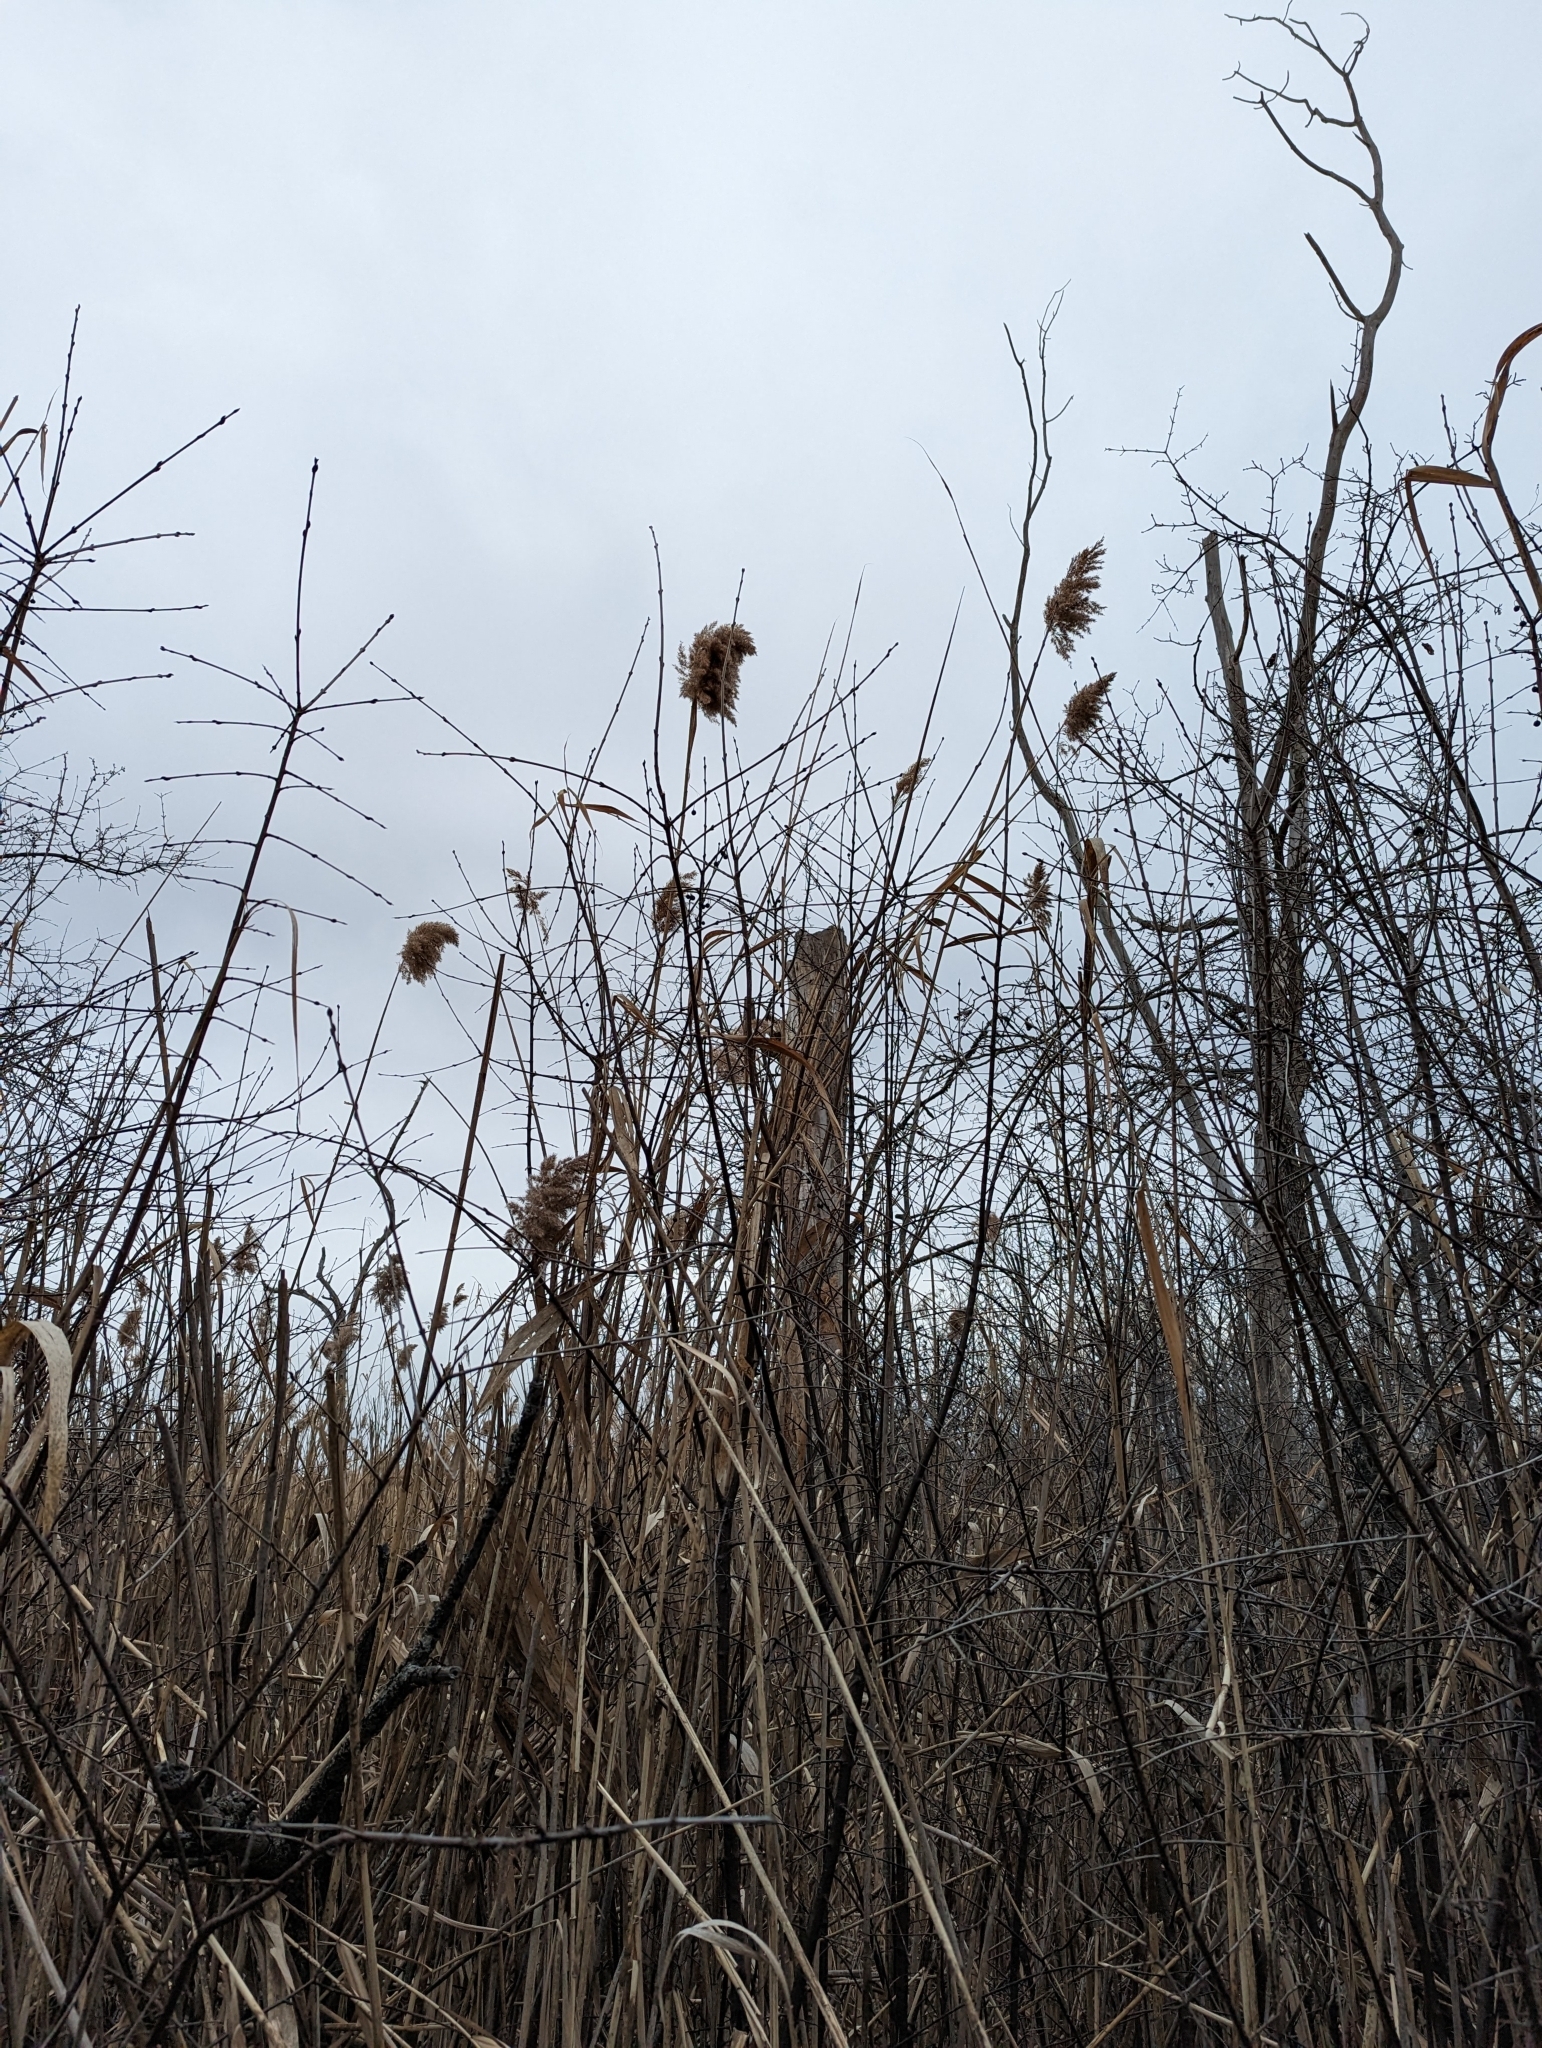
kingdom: Plantae
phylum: Tracheophyta
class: Liliopsida
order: Poales
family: Poaceae
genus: Phragmites
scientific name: Phragmites australis
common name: Common reed
